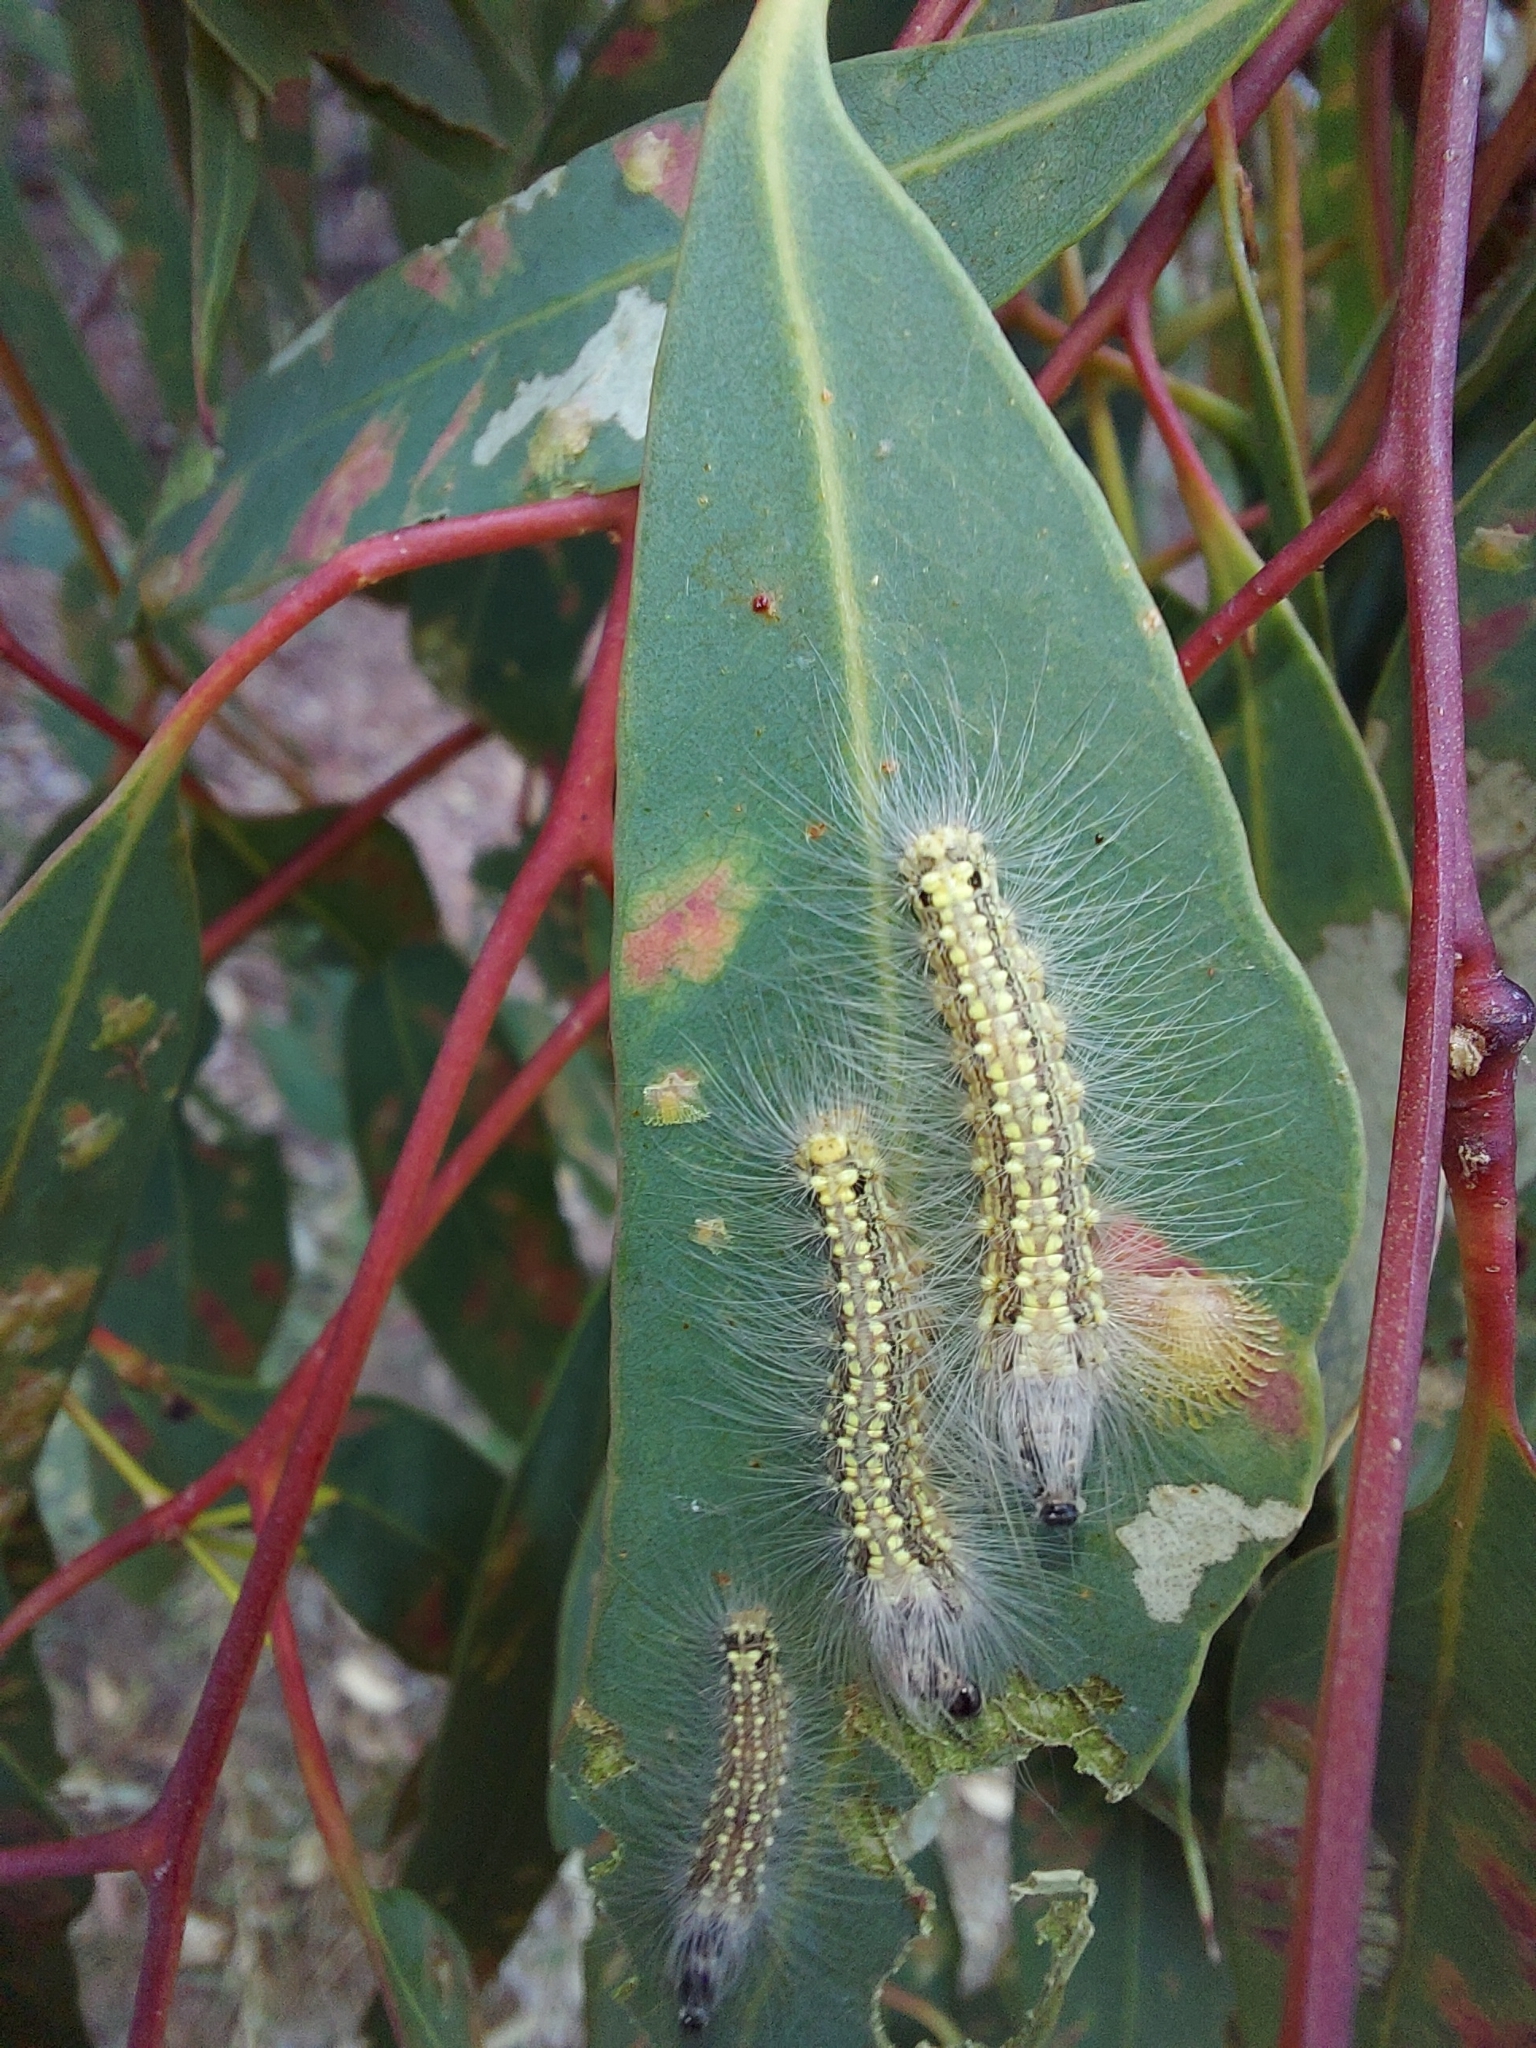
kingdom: Animalia
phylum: Arthropoda
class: Insecta
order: Lepidoptera
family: Nolidae
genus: Uraba
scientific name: Uraba lugens
